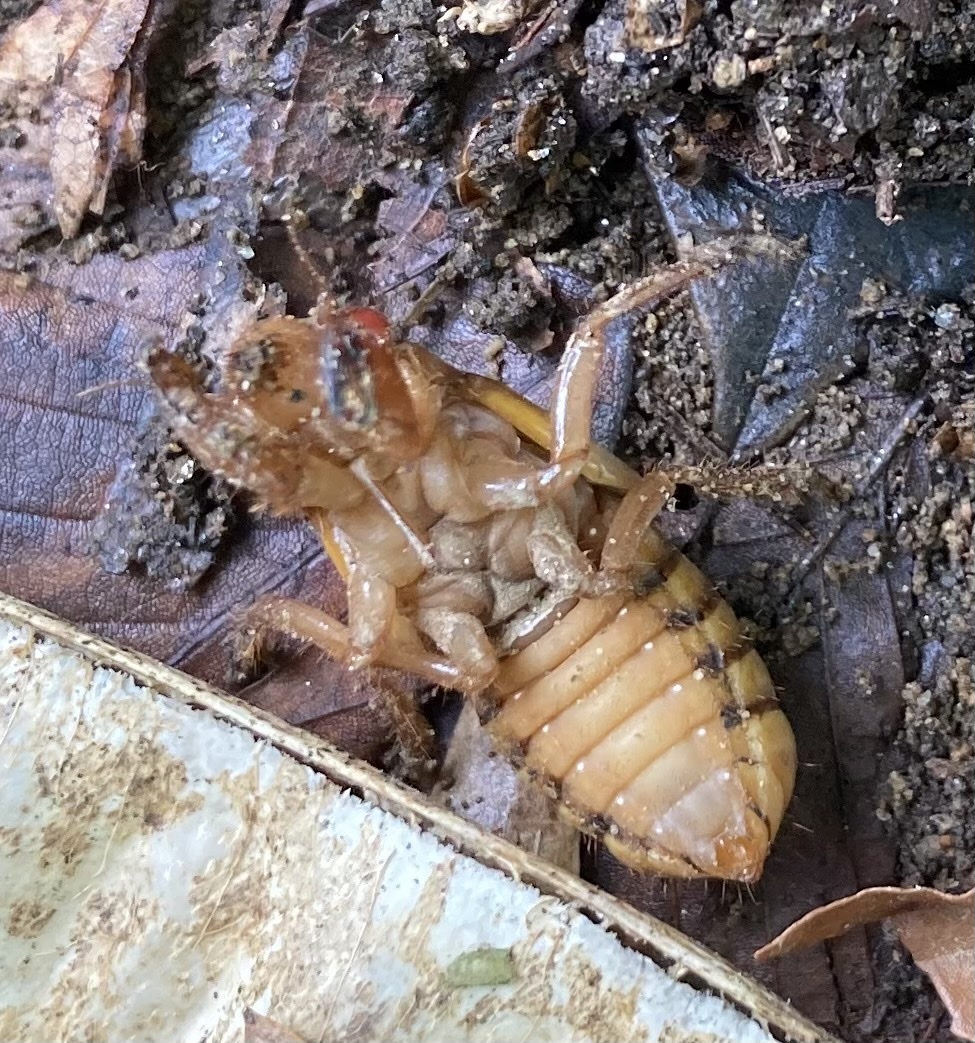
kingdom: Animalia
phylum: Arthropoda
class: Insecta
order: Hemiptera
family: Cicadidae
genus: Magicicada
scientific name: Magicicada
